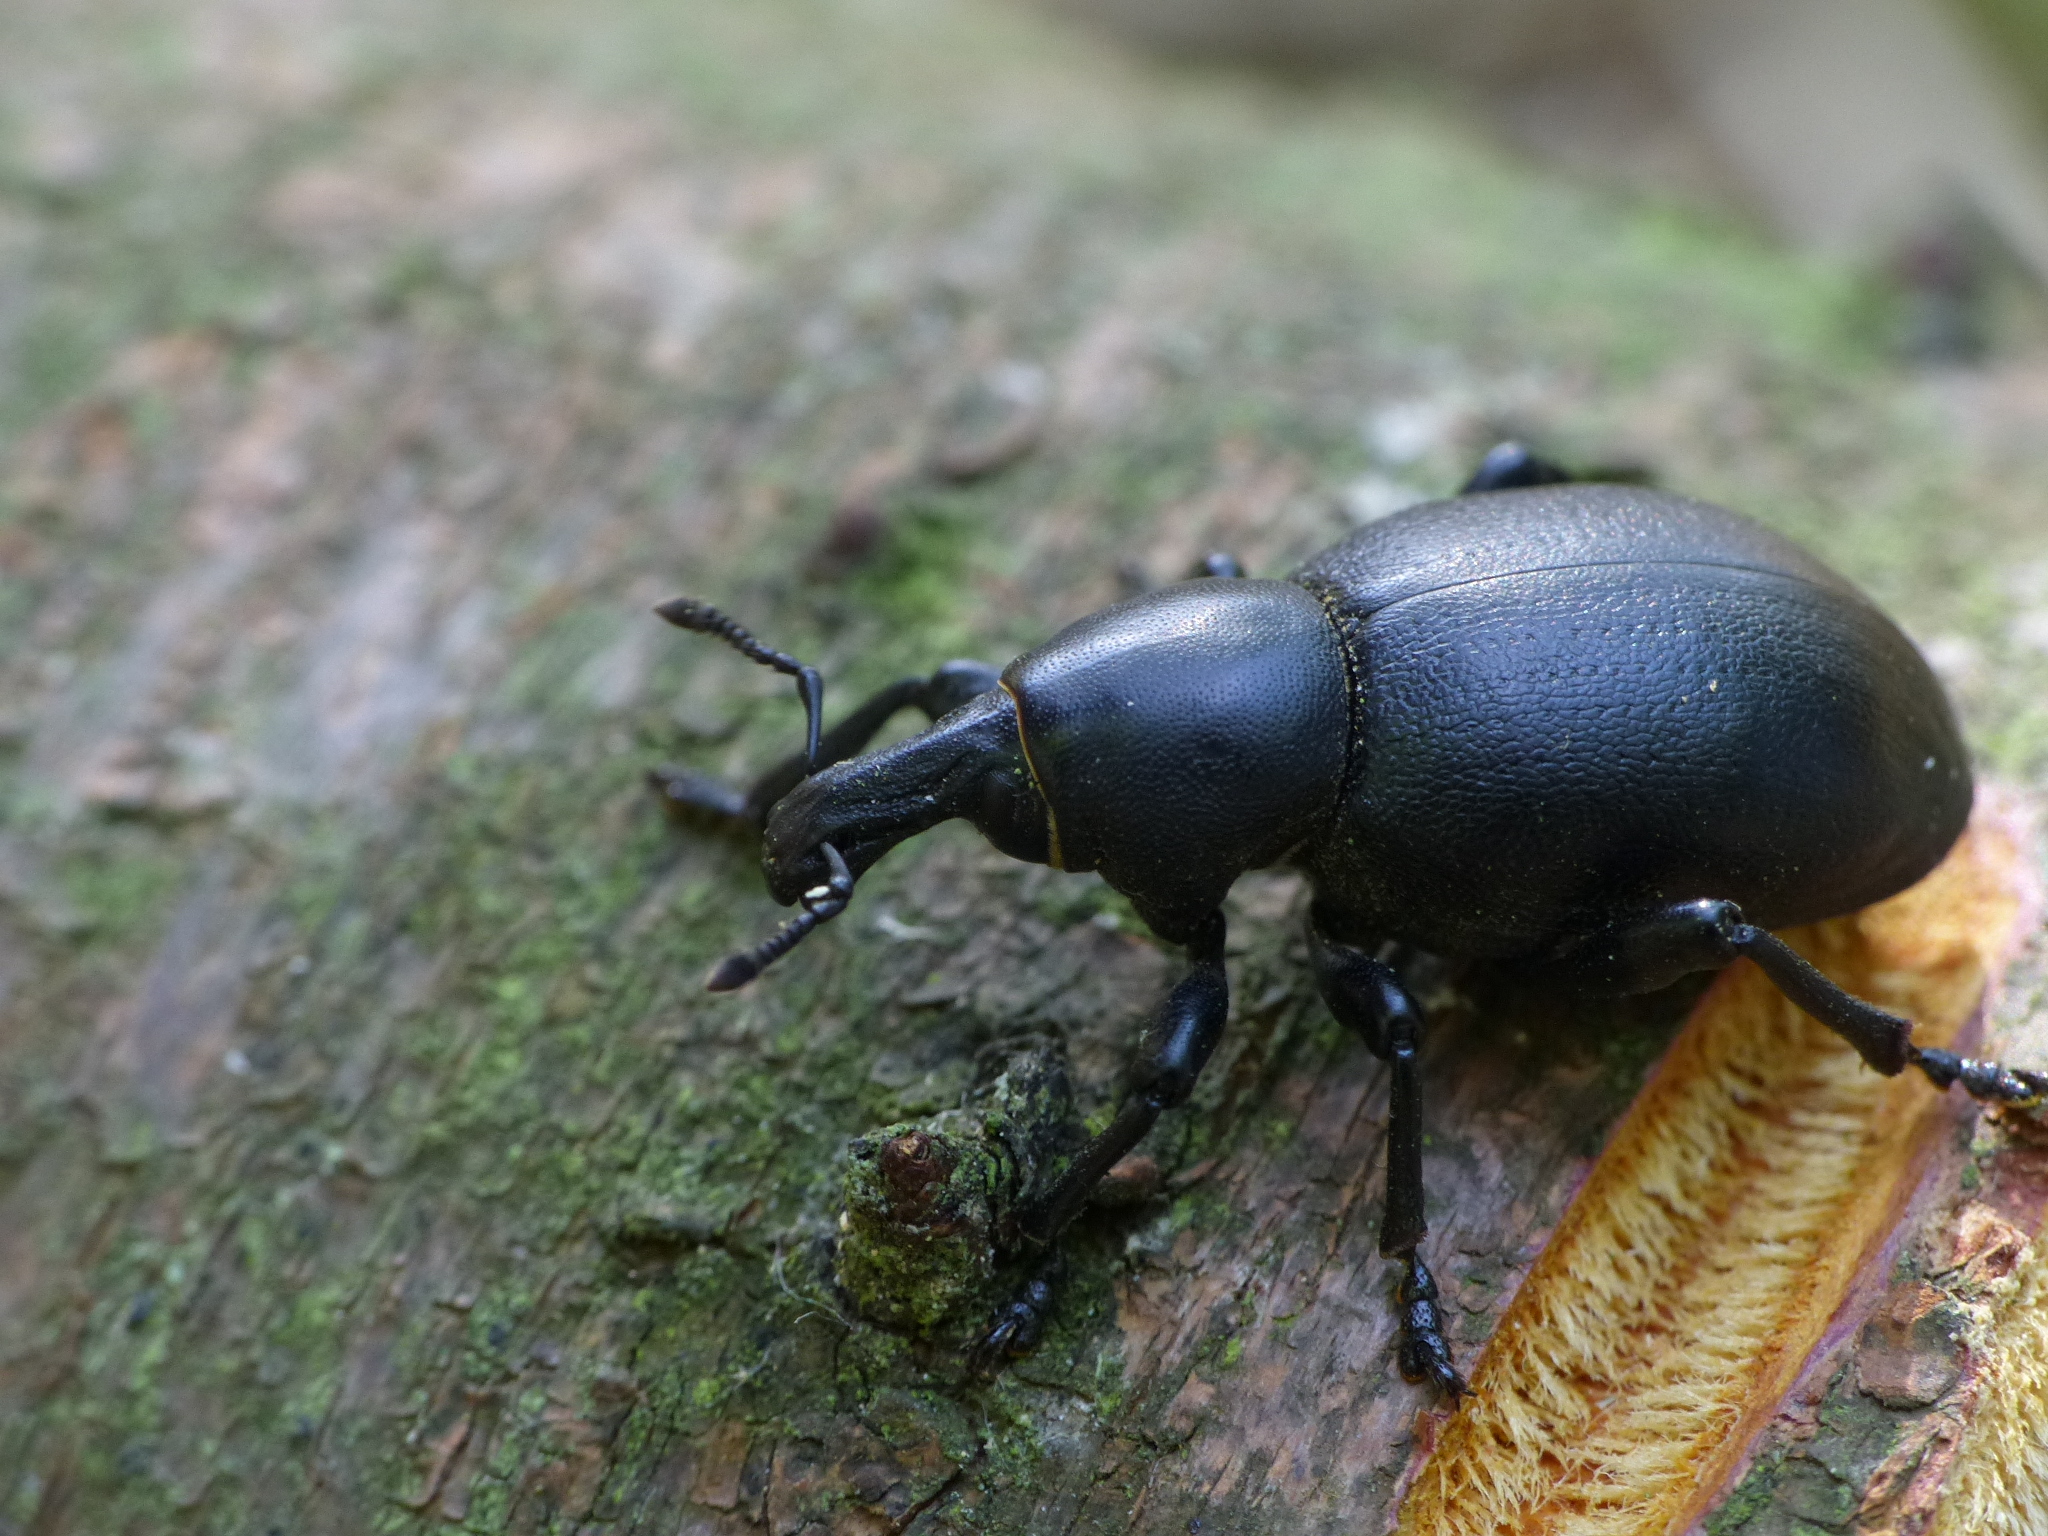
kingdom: Animalia
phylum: Arthropoda
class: Insecta
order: Coleoptera
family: Curculionidae
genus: Liparus
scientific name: Liparus dirus
